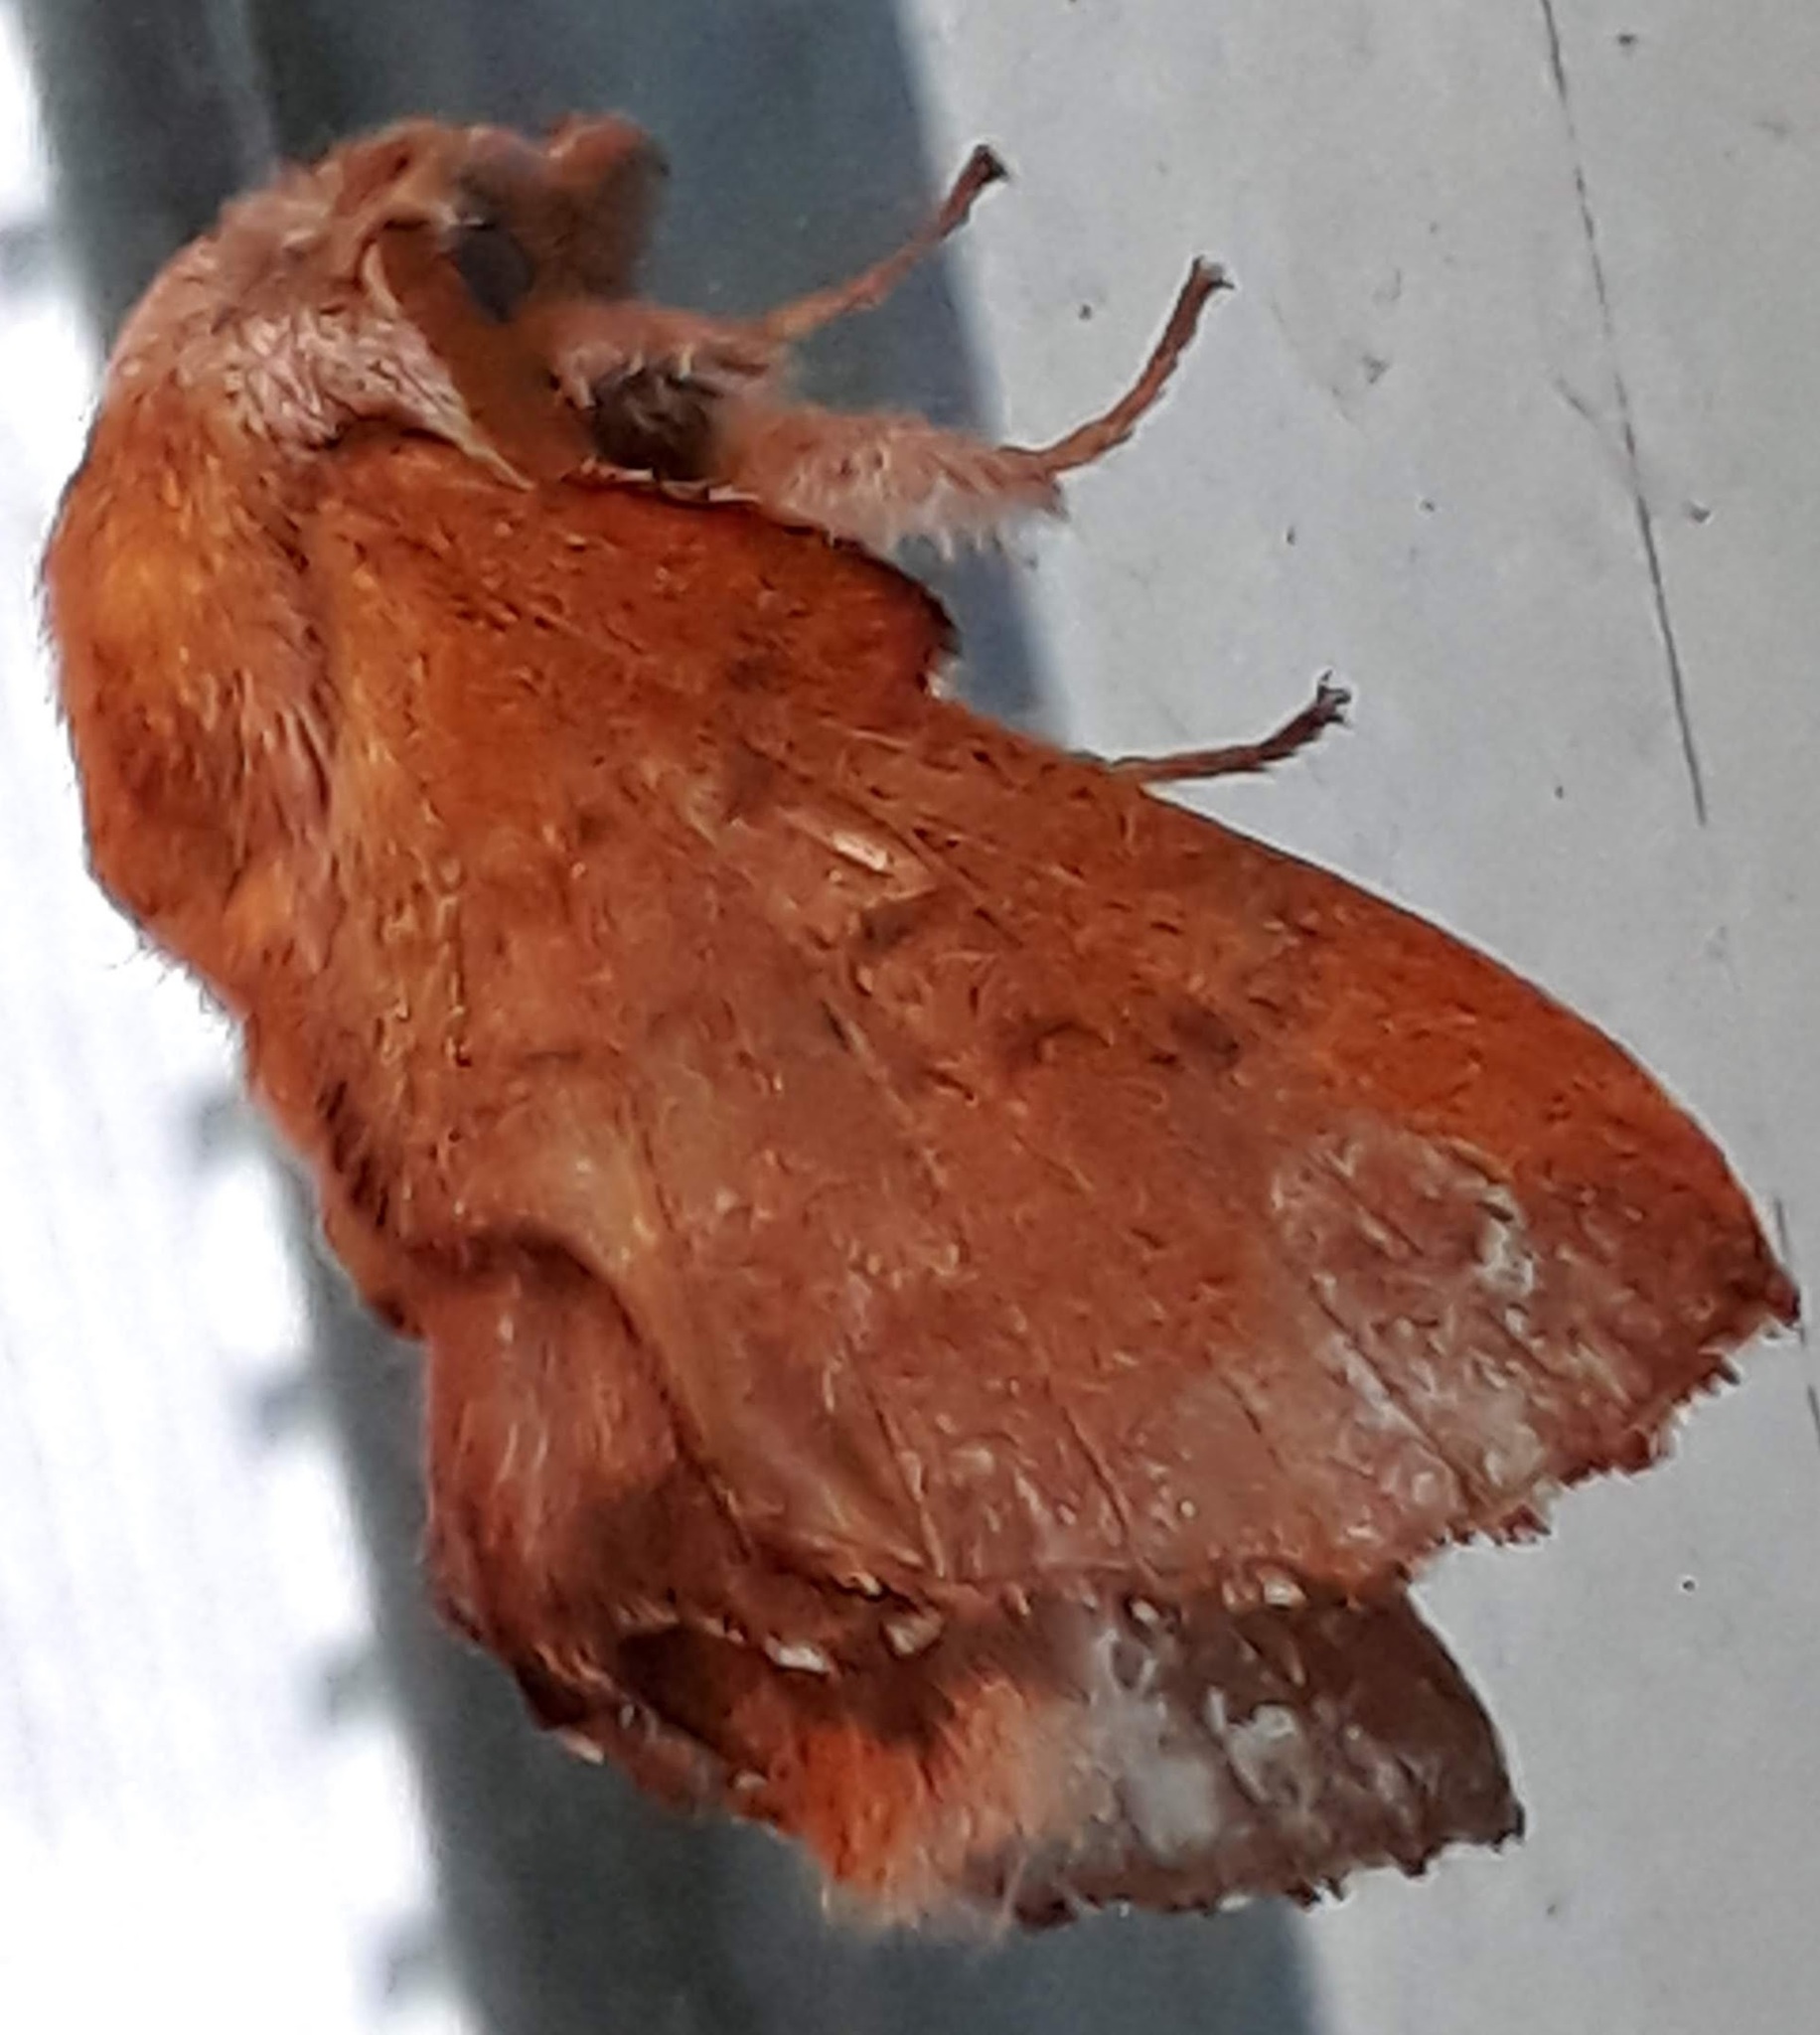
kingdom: Animalia
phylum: Arthropoda
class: Insecta
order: Lepidoptera
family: Lasiocampidae
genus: Phyllodesma
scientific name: Phyllodesma americana
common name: American lappet moth
